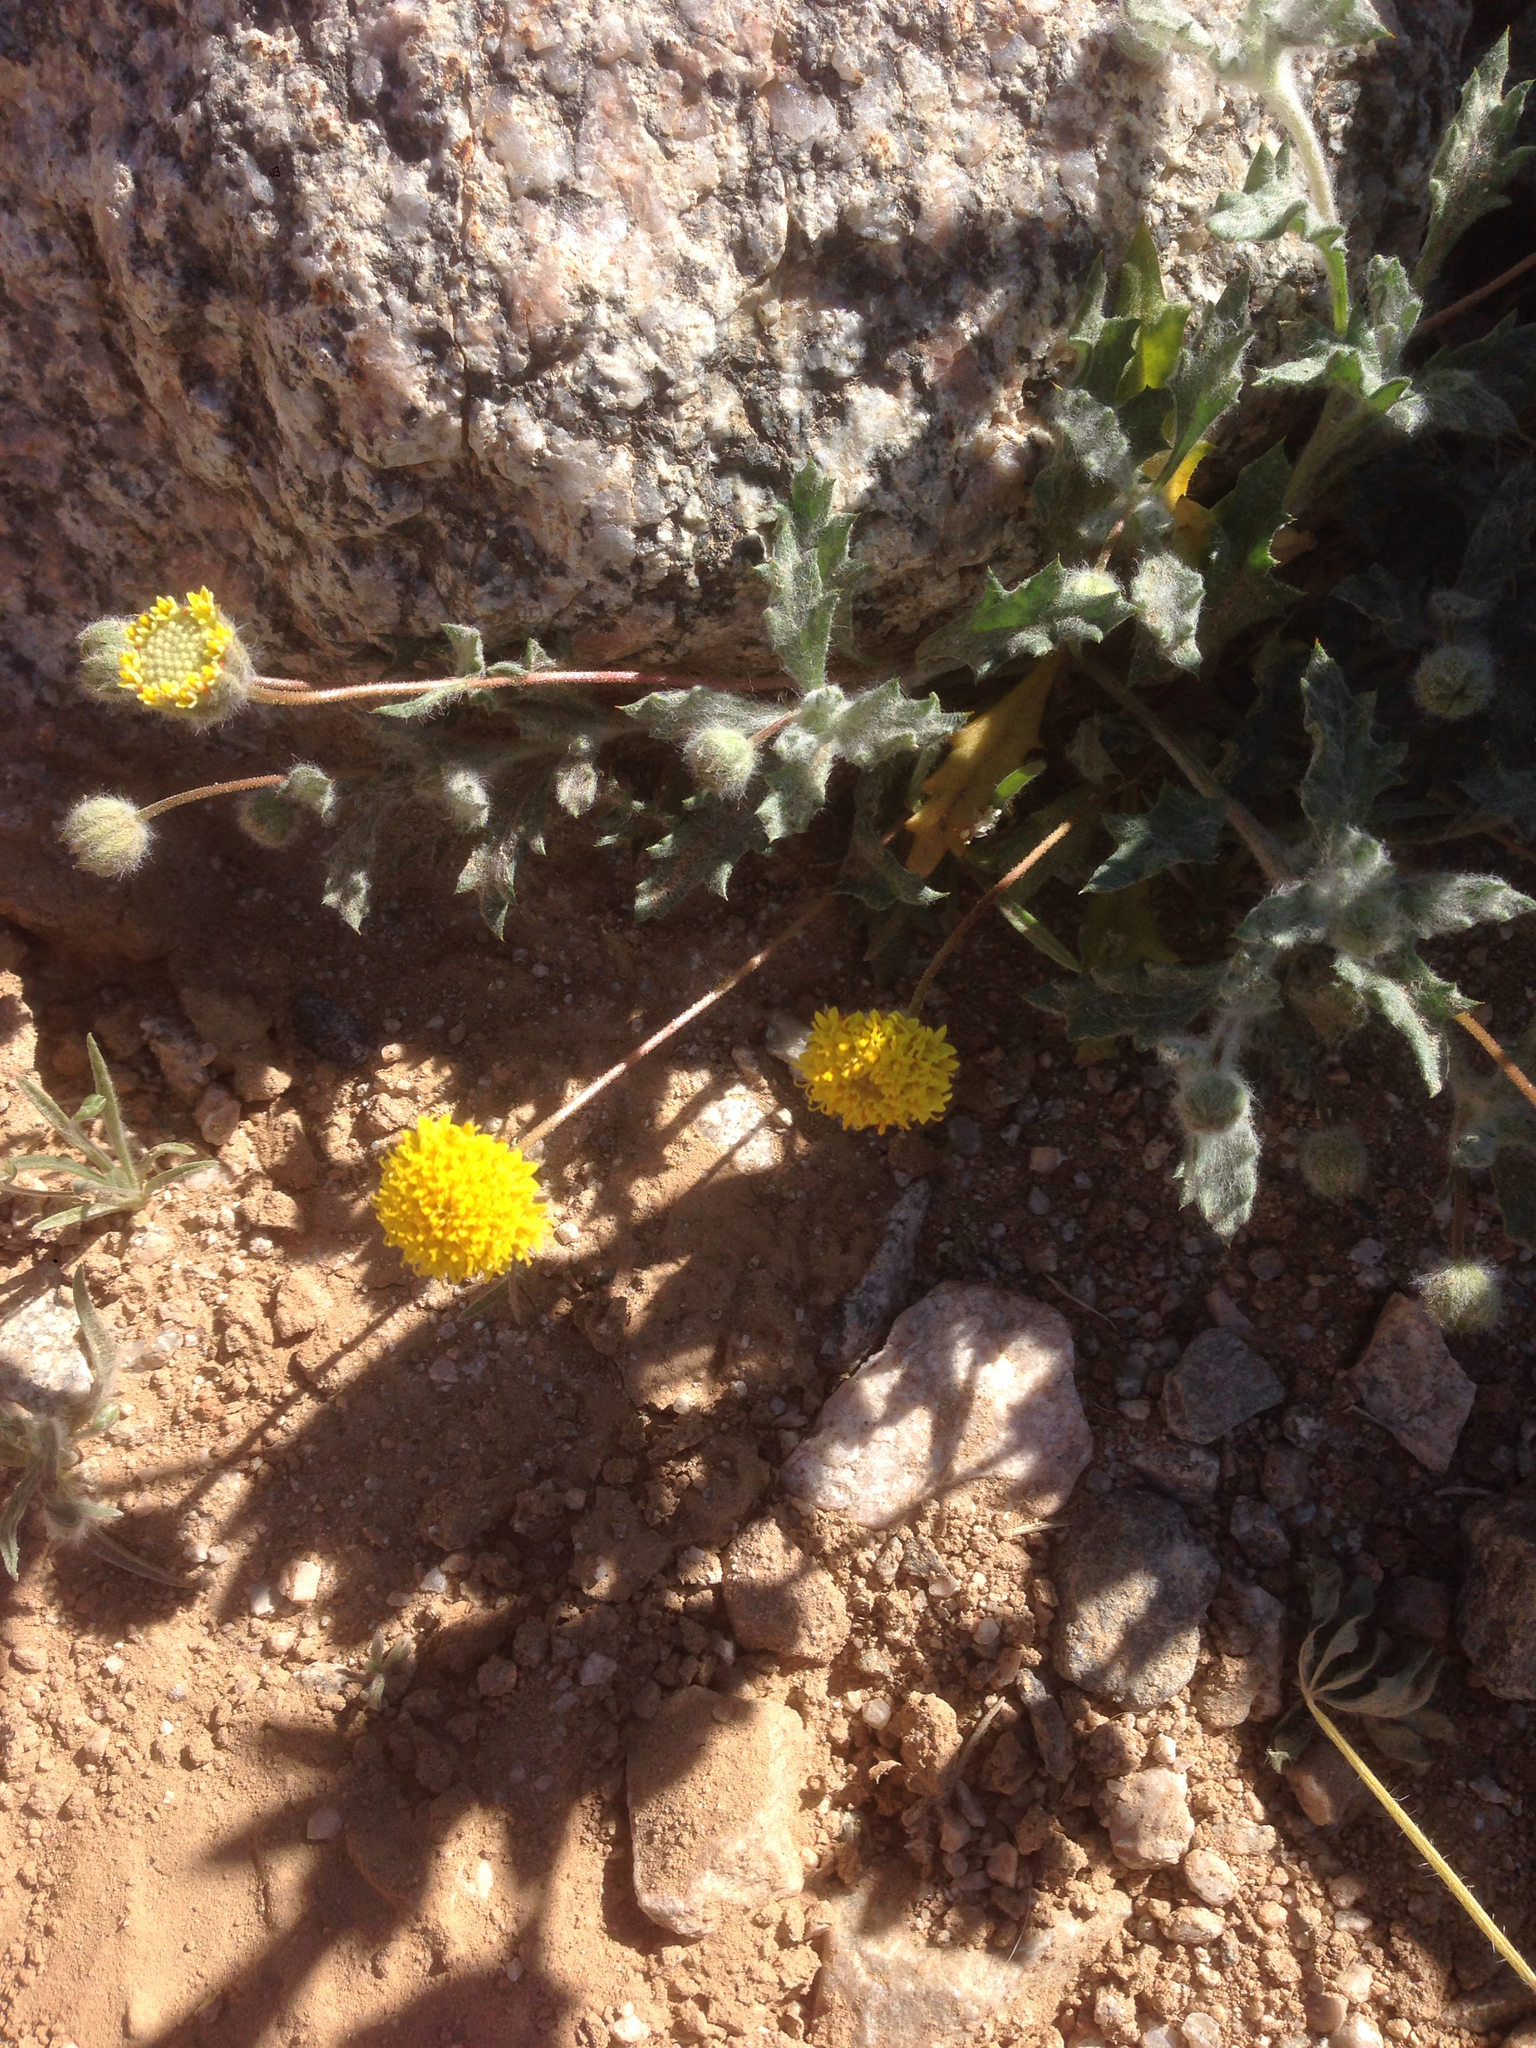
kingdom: Plantae
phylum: Tracheophyta
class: Magnoliopsida
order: Asterales
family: Asteraceae
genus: Trichoptilium
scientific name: Trichoptilium incisum
